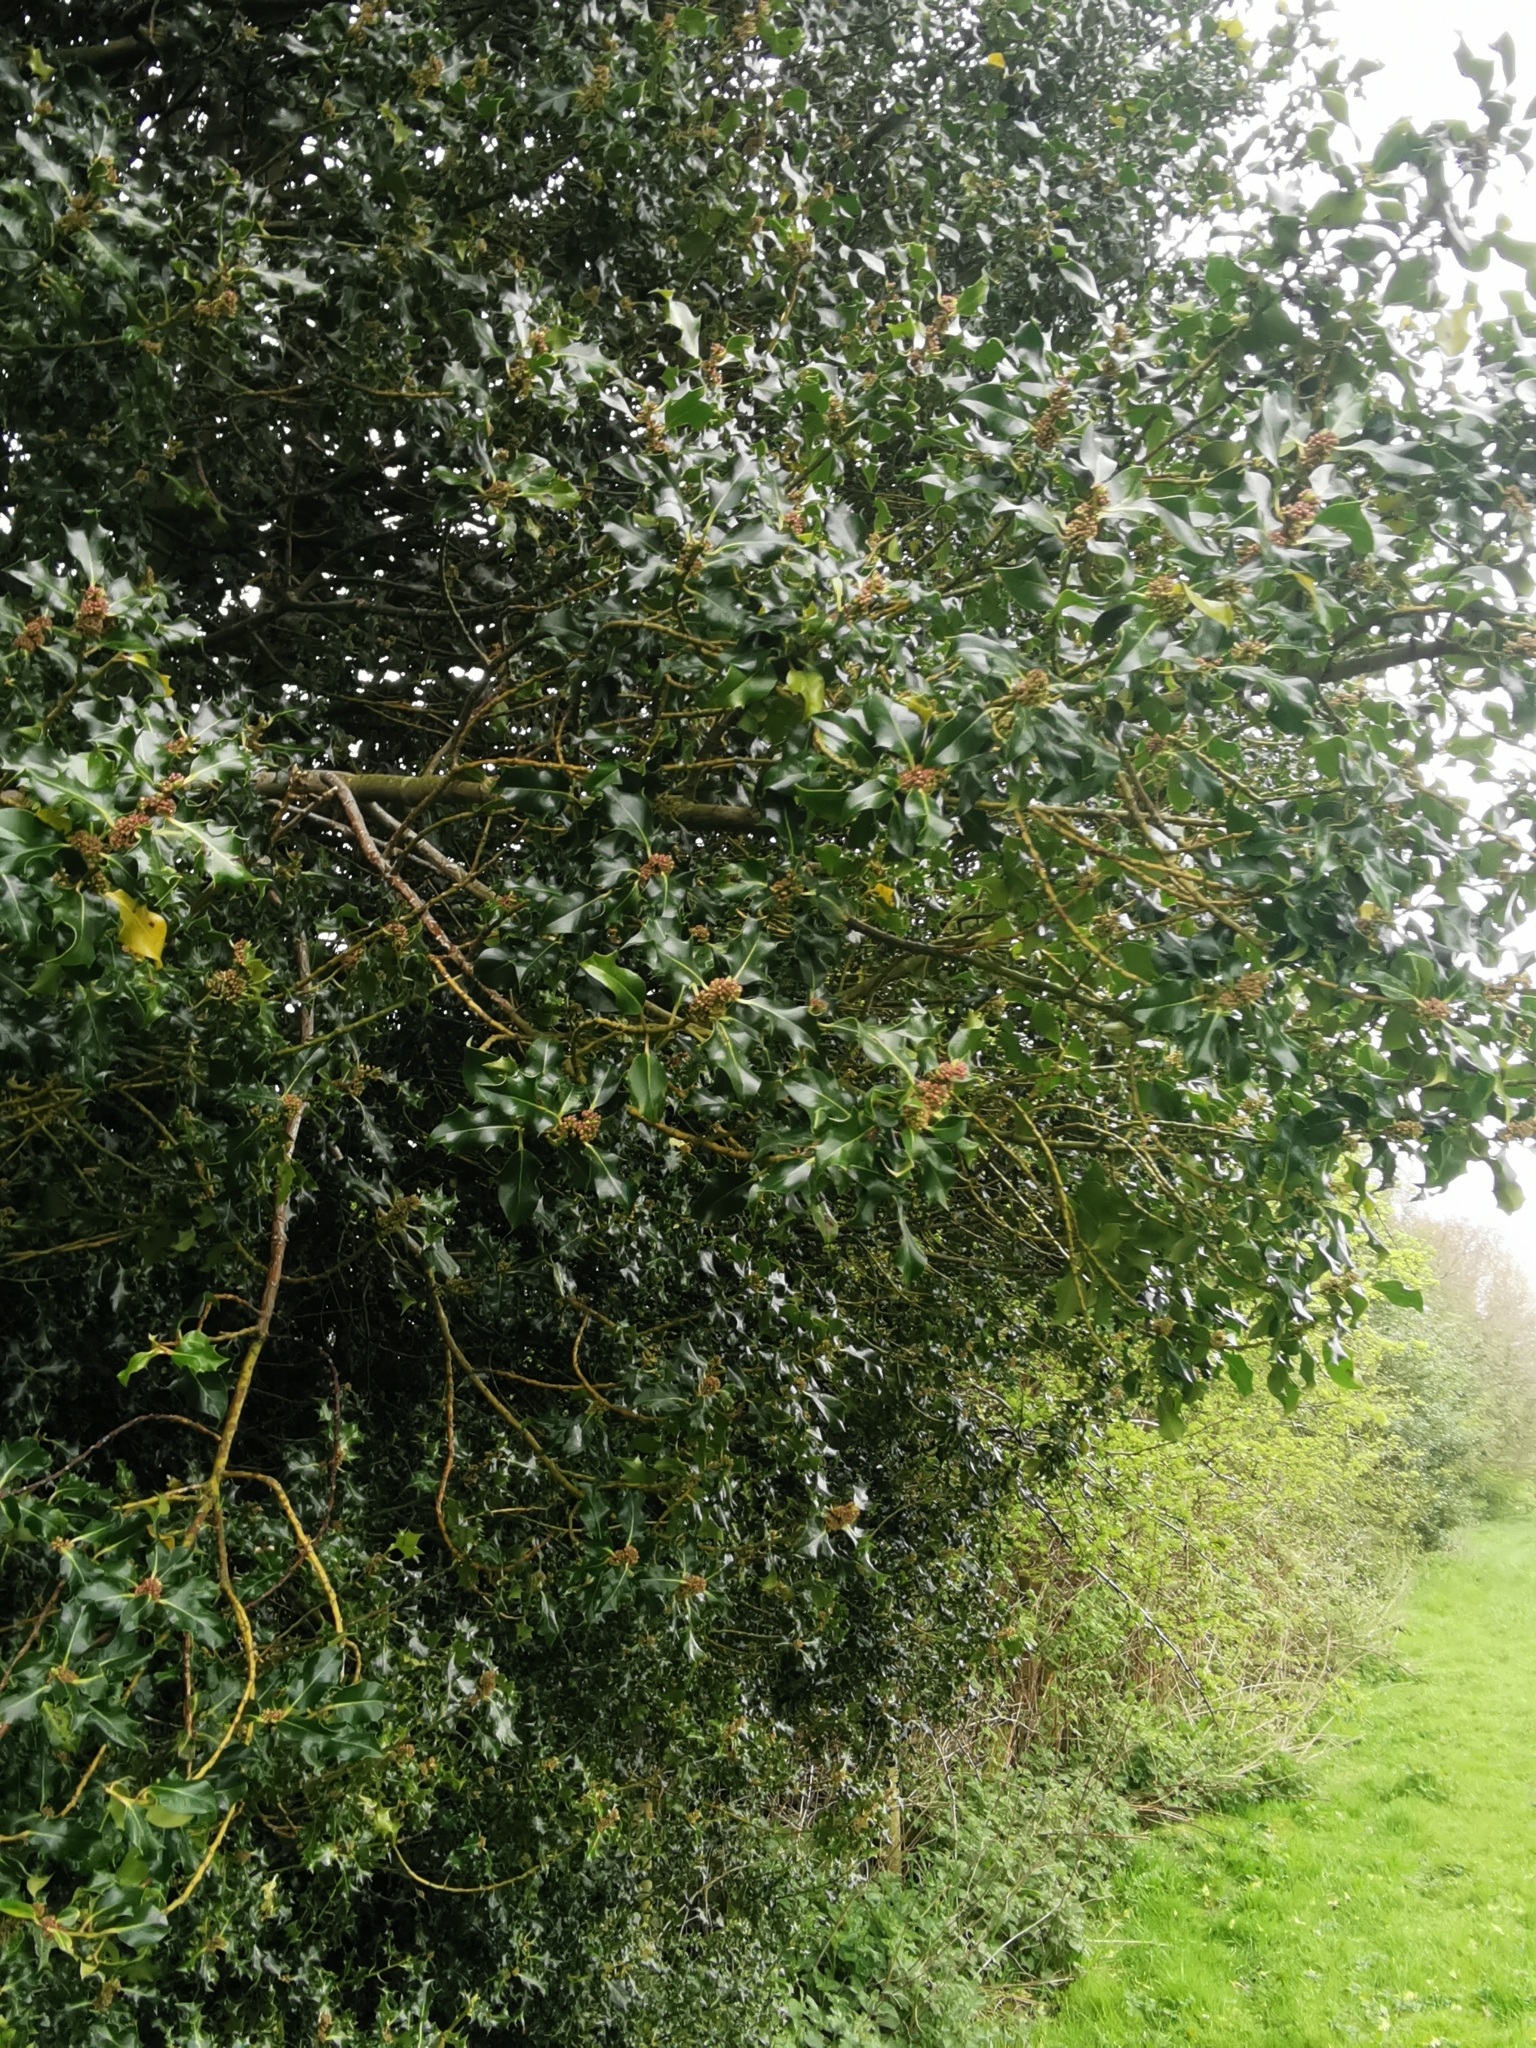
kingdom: Plantae
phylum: Tracheophyta
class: Magnoliopsida
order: Aquifoliales
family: Aquifoliaceae
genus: Ilex
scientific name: Ilex aquifolium
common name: English holly
